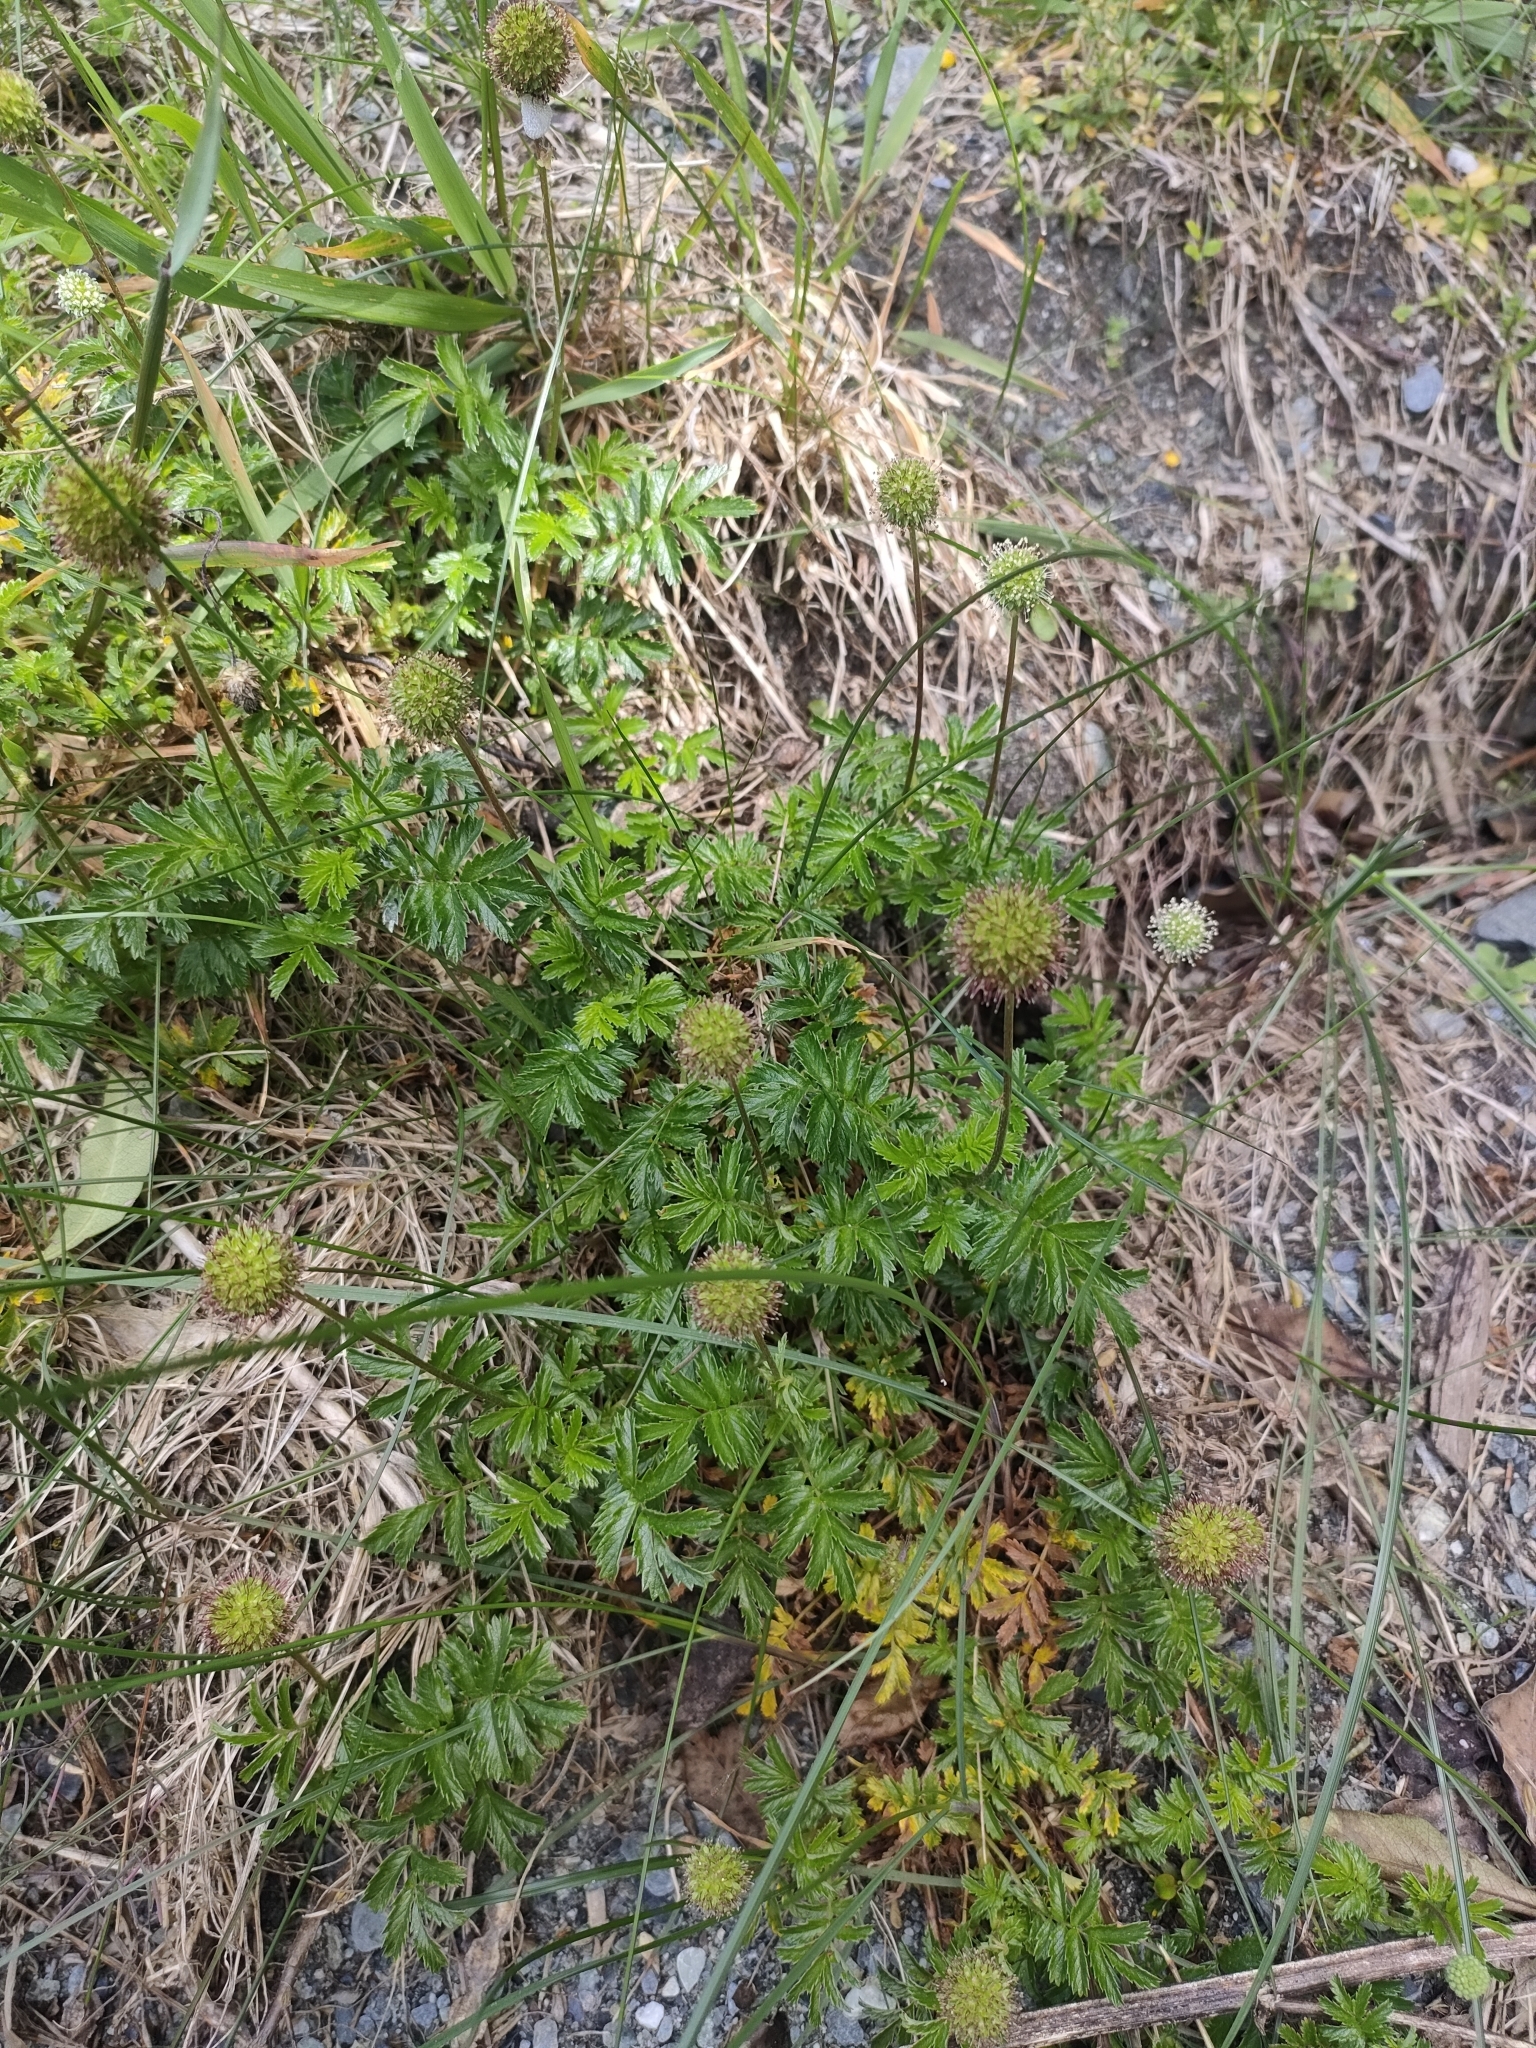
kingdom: Plantae
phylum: Tracheophyta
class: Magnoliopsida
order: Rosales
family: Rosaceae
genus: Acaena
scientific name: Acaena novae-zelandiae
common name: Pirri-pirri-bur
